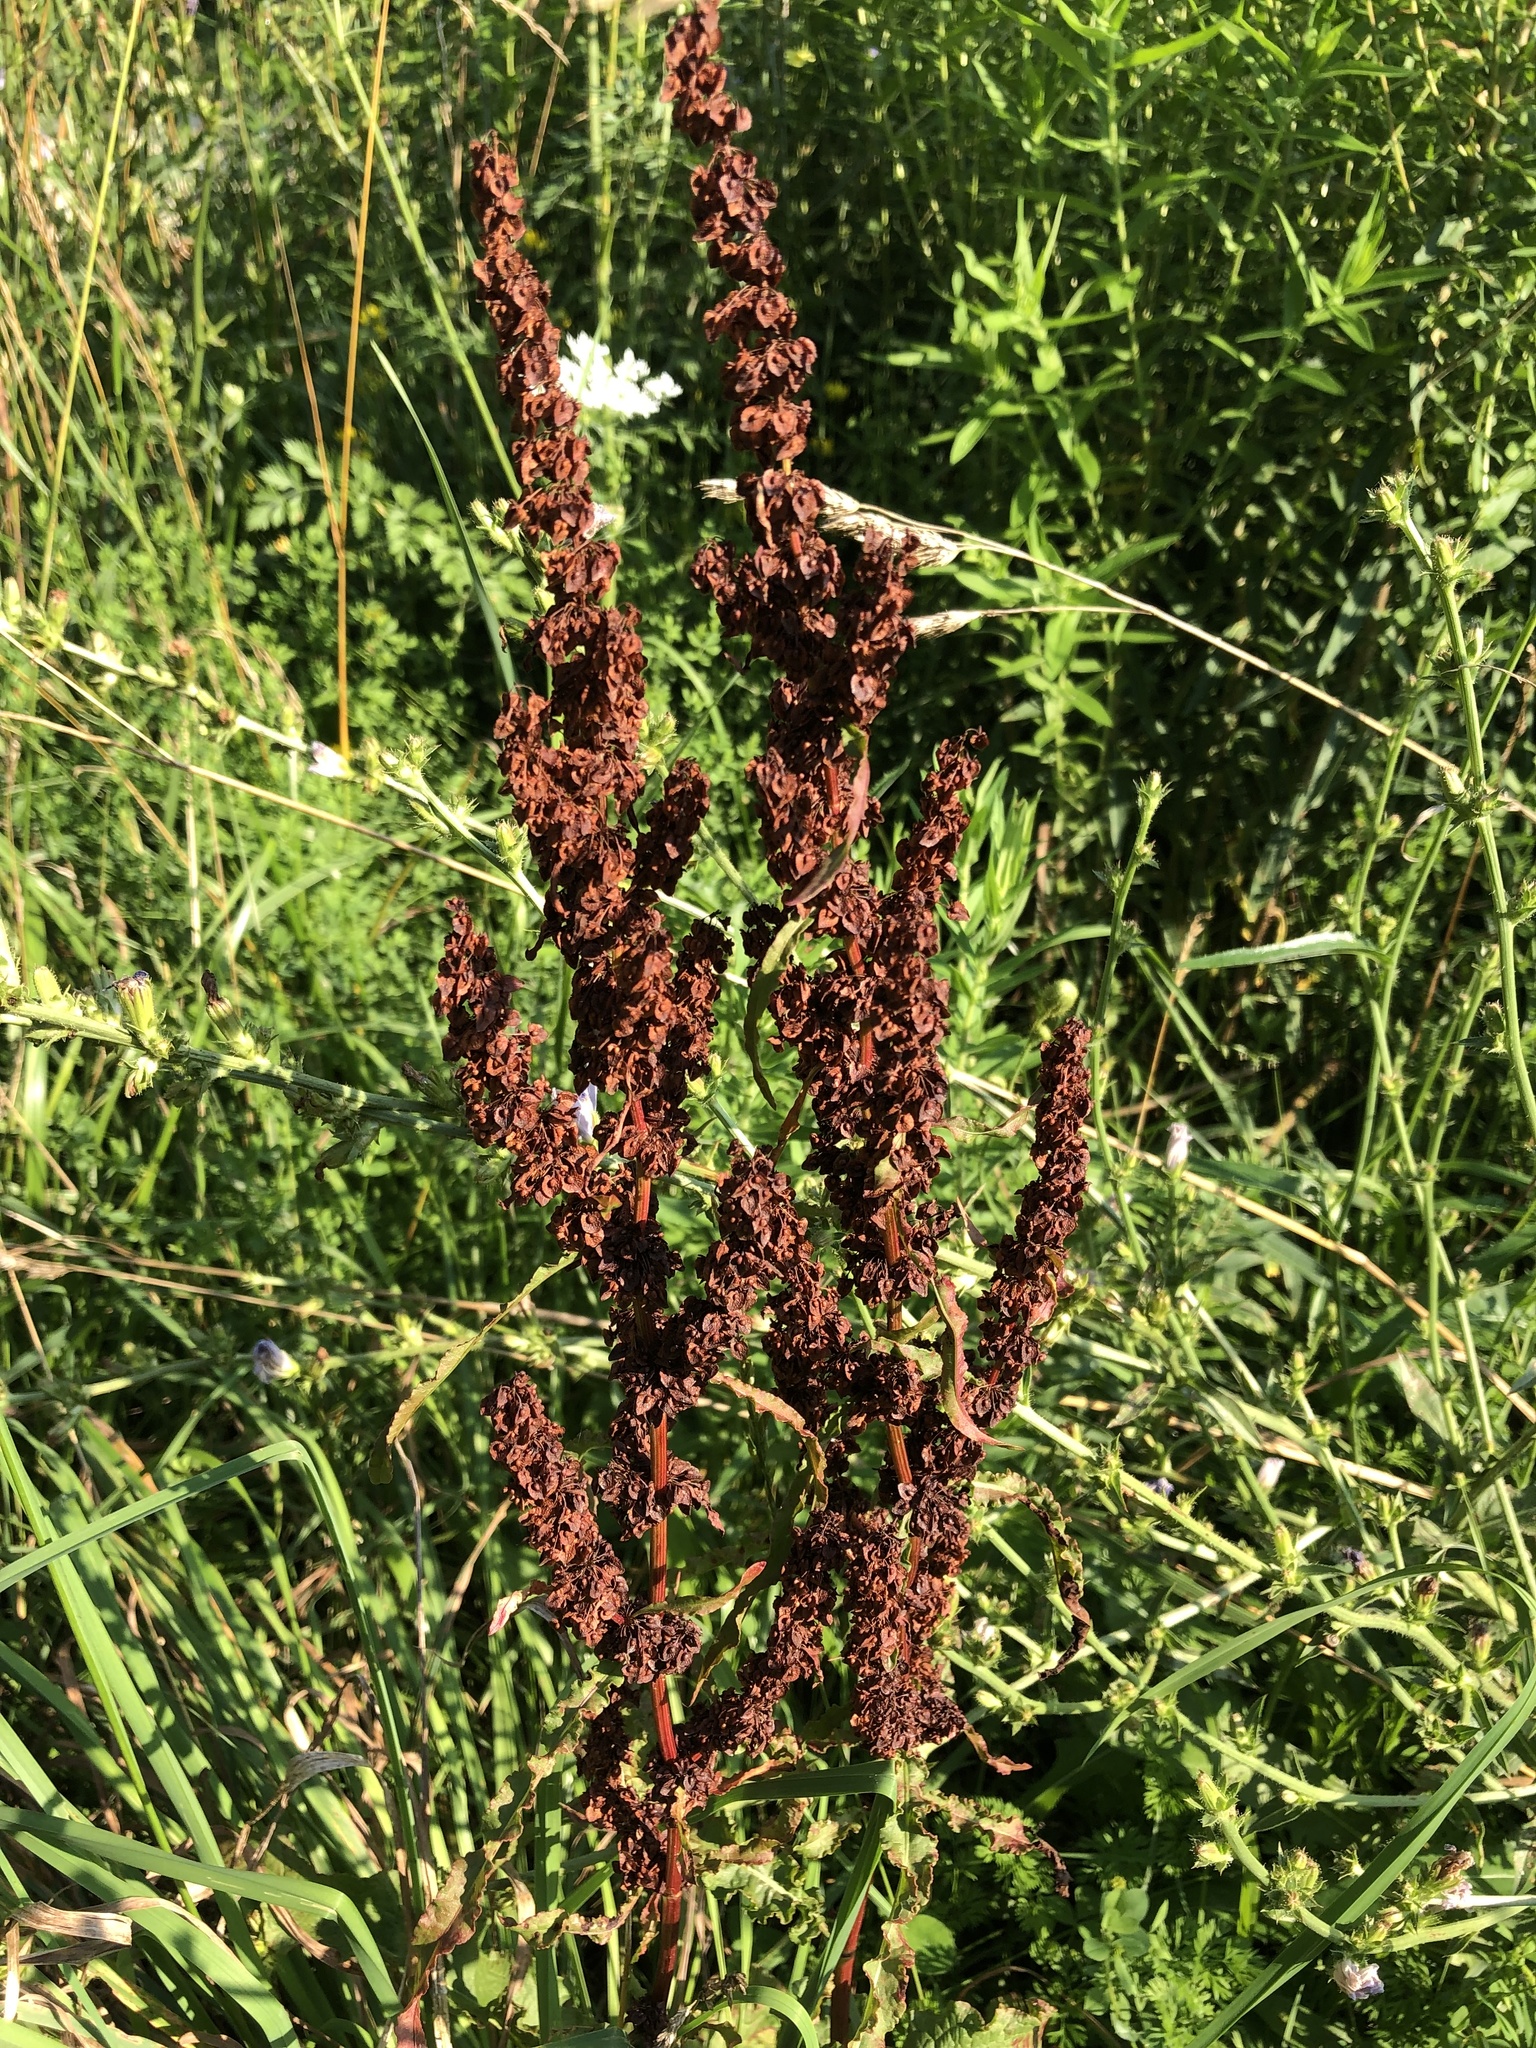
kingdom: Plantae
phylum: Tracheophyta
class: Magnoliopsida
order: Caryophyllales
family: Polygonaceae
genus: Rumex
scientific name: Rumex crispus
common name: Curled dock
